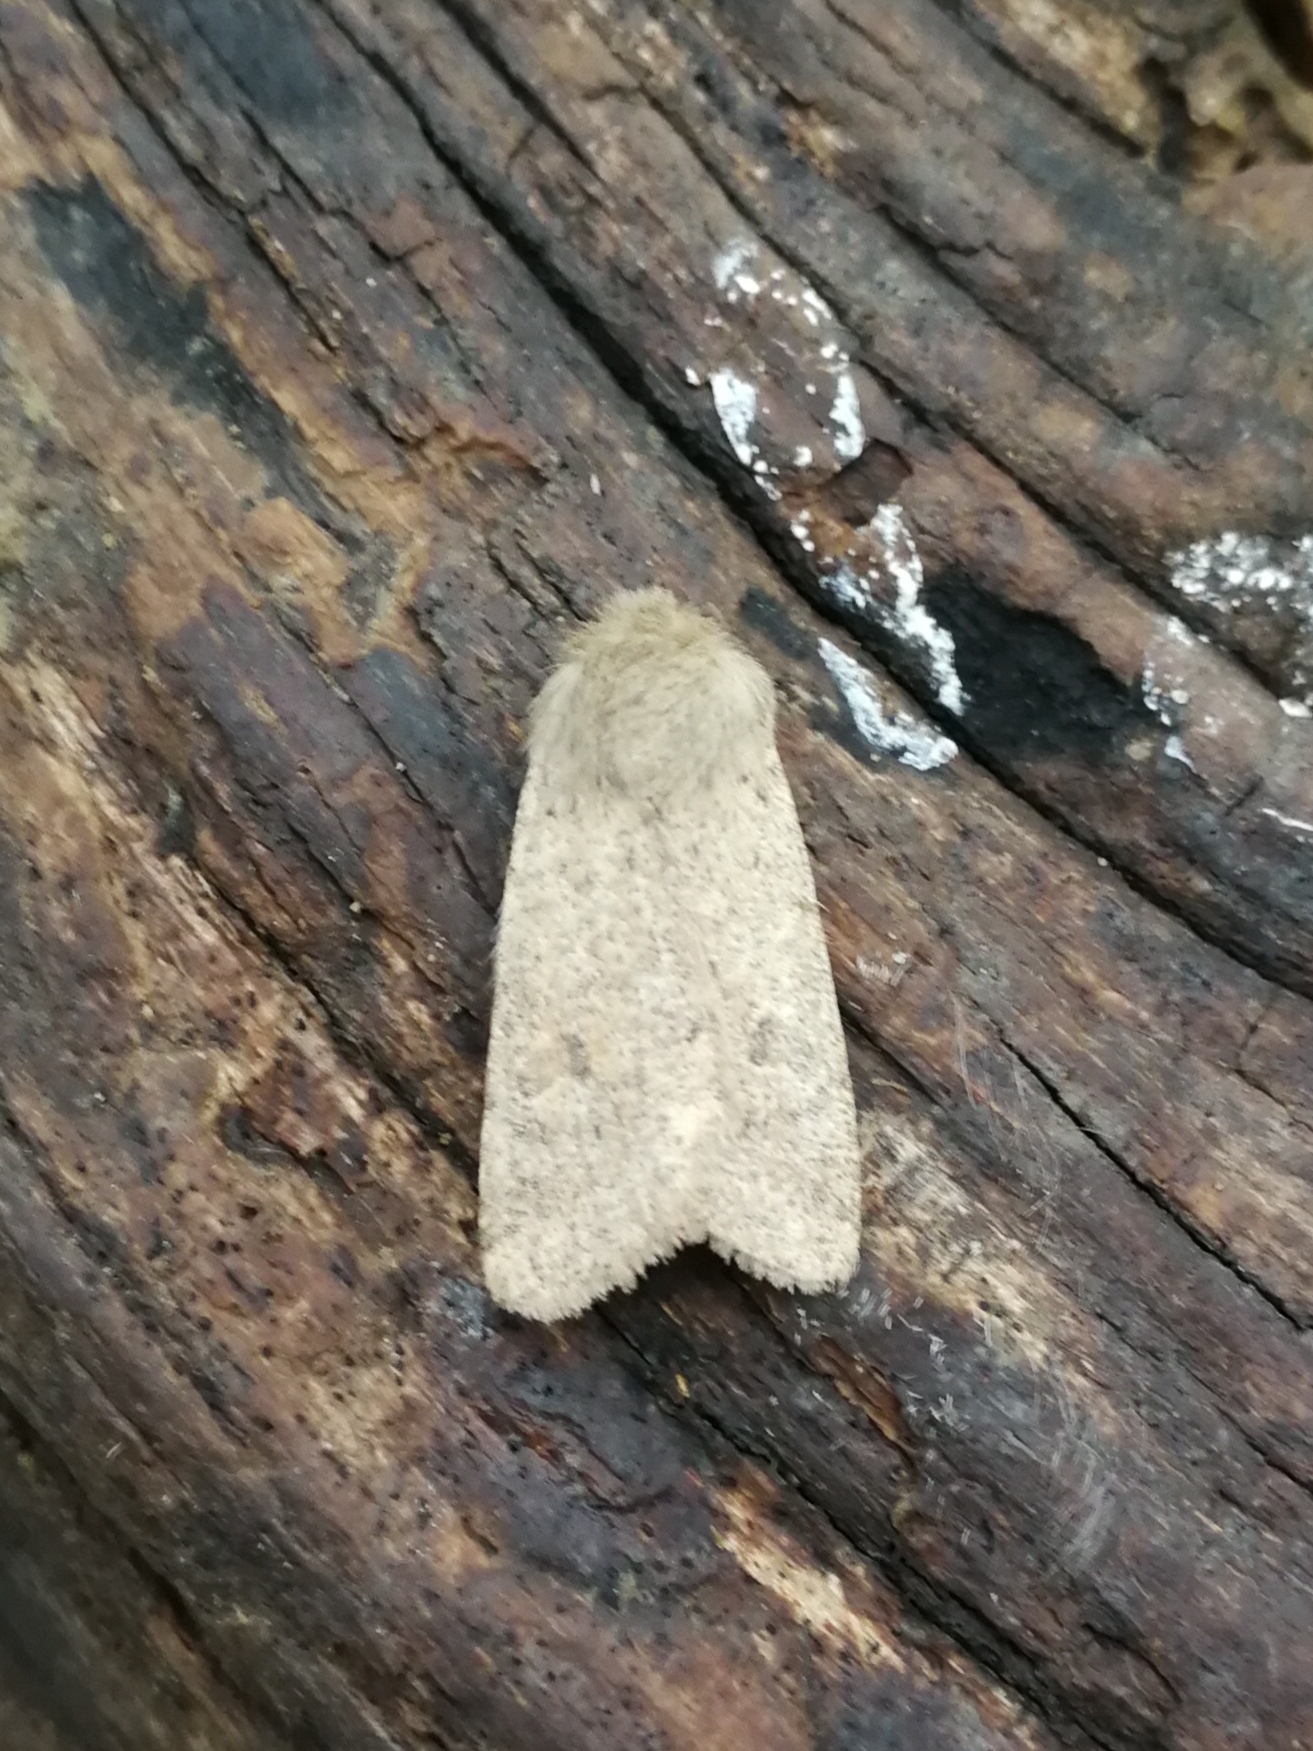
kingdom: Animalia
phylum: Arthropoda
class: Insecta
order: Lepidoptera
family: Noctuidae
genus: Orthosia
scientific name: Orthosia cruda
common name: Small quaker
